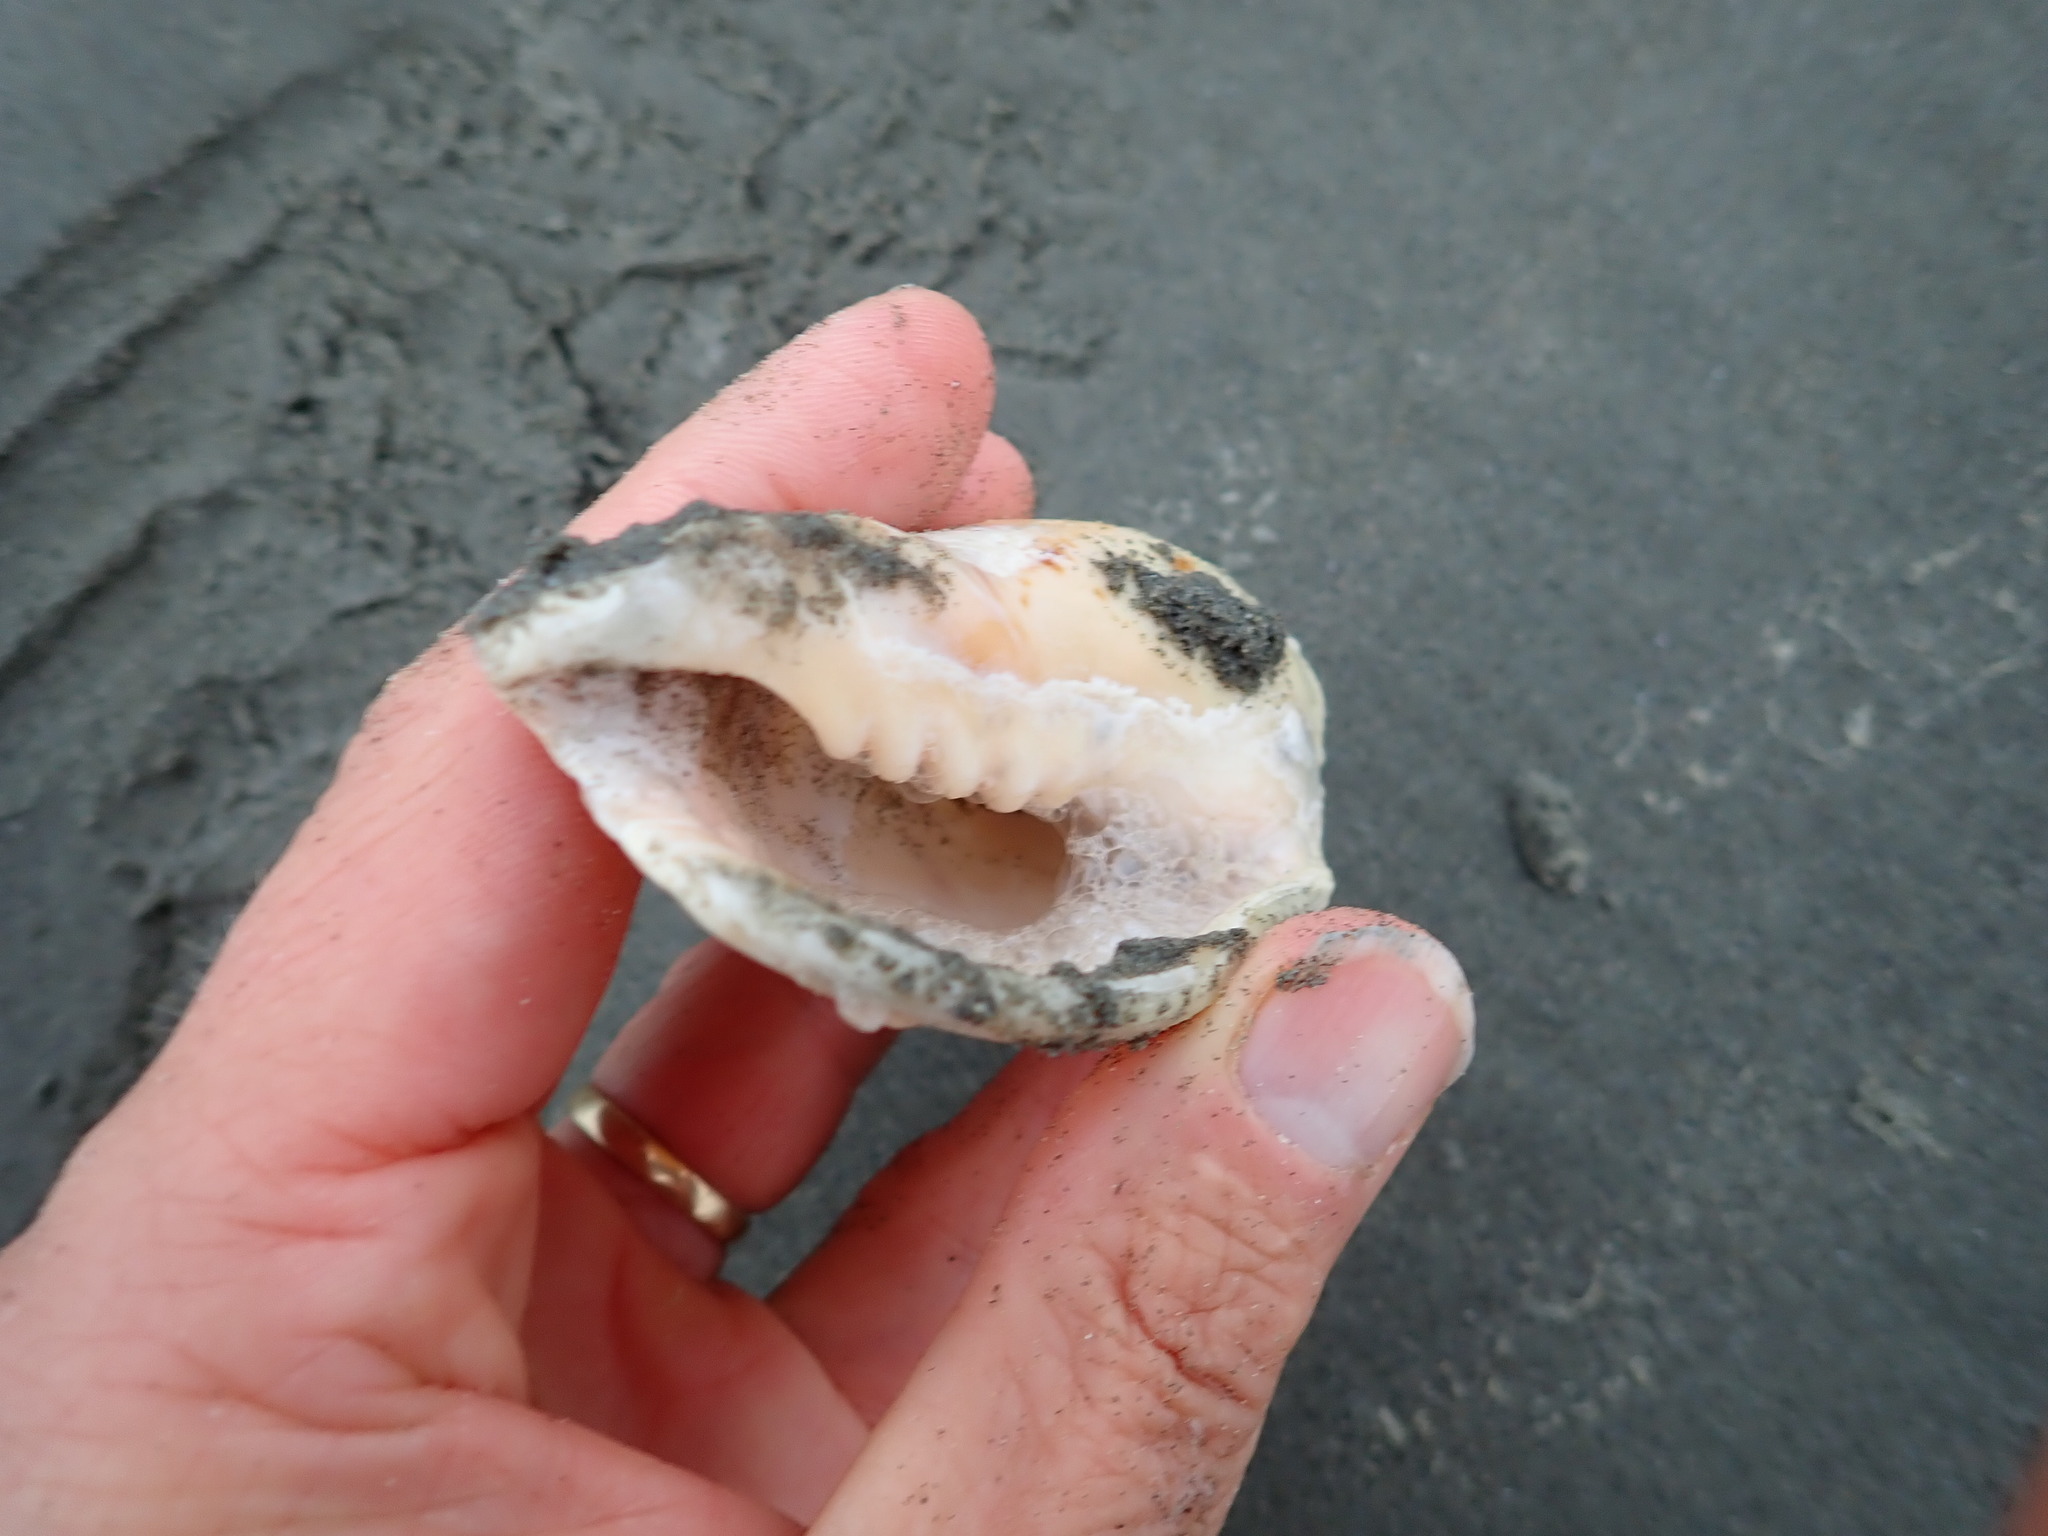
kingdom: Animalia
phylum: Mollusca
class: Gastropoda
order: Neogastropoda
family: Volutidae
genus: Alcithoe
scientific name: Alcithoe arabica
